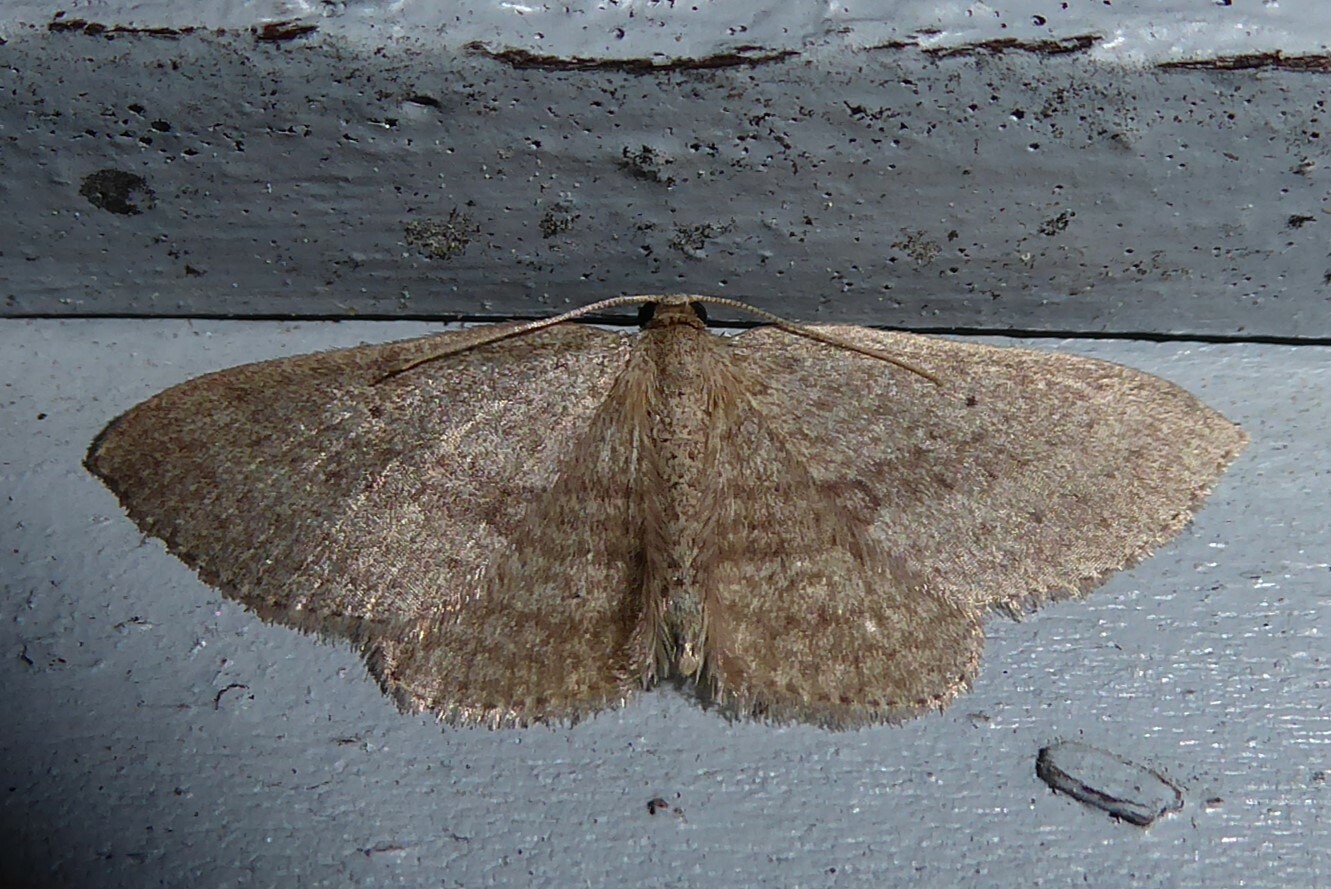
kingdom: Animalia
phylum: Arthropoda
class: Insecta
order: Lepidoptera
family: Geometridae
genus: Poecilasthena
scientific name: Poecilasthena schistaria
